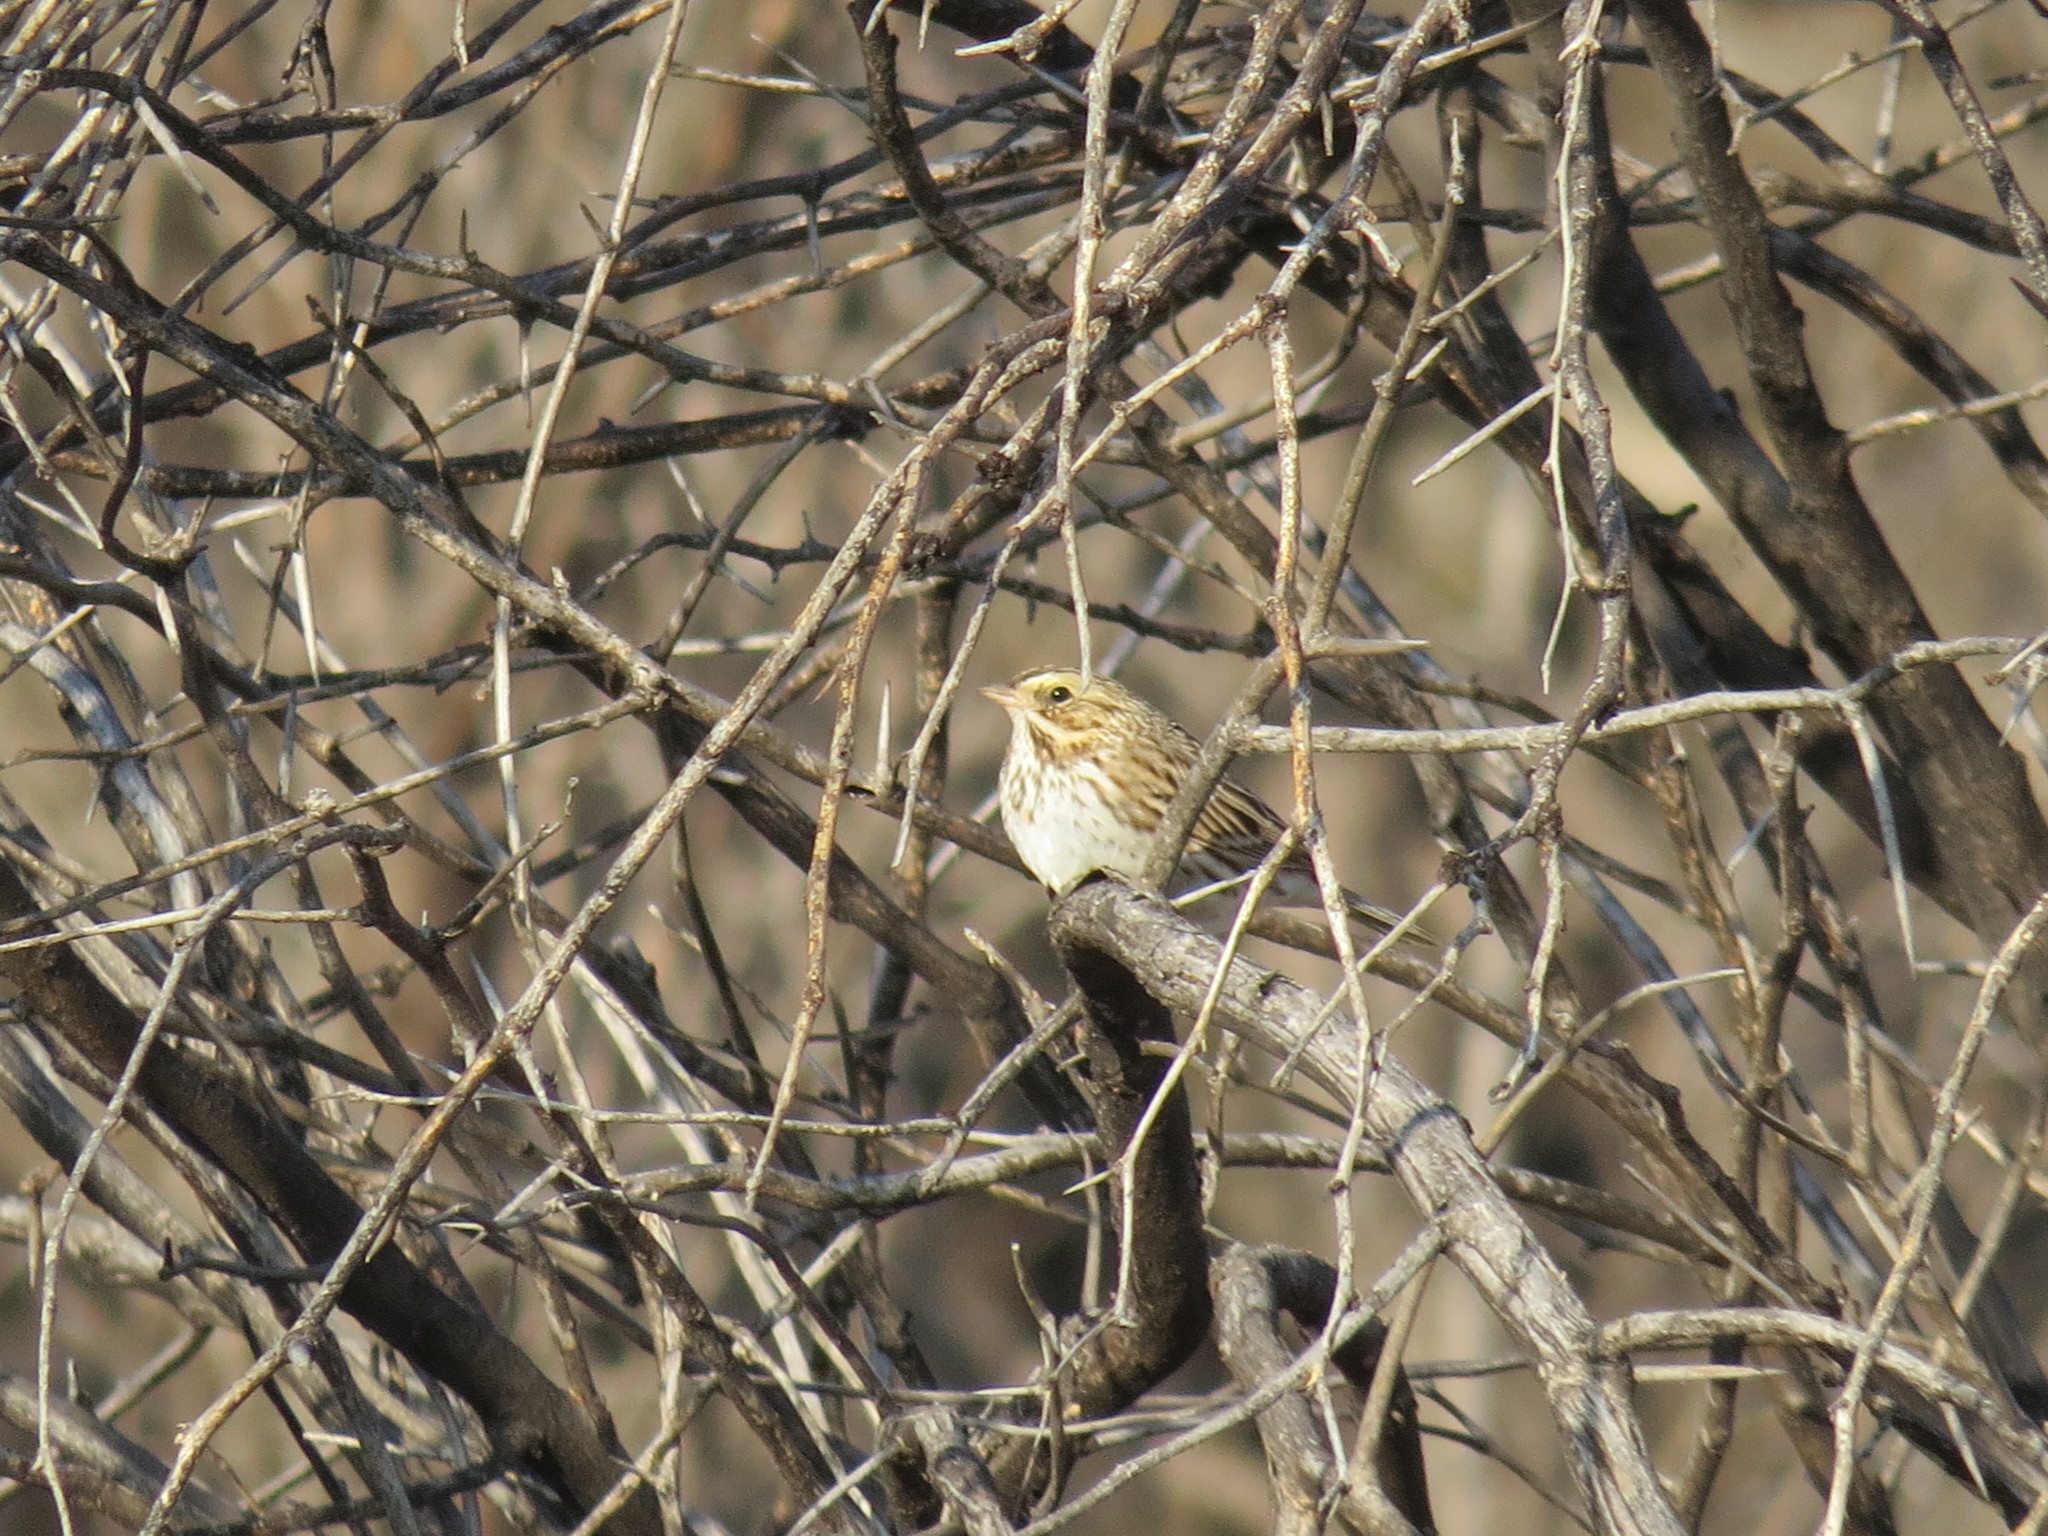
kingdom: Animalia
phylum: Chordata
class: Aves
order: Passeriformes
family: Passerellidae
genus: Passerculus
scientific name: Passerculus sandwichensis
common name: Savannah sparrow
